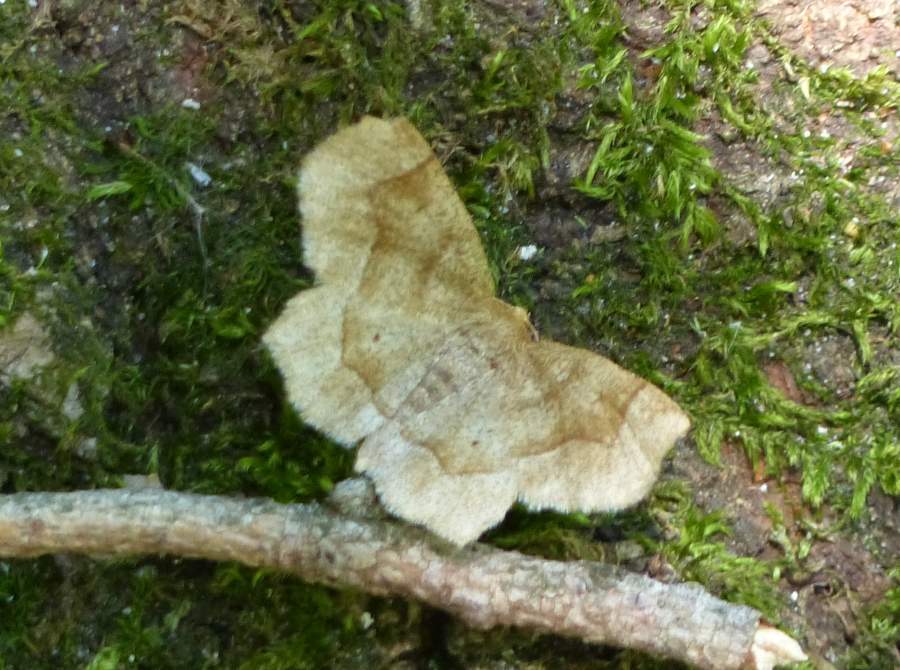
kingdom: Animalia
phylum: Arthropoda
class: Insecta
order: Lepidoptera
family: Geometridae
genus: Metarranthis
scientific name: Metarranthis hypochraria
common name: Common metarranthis
